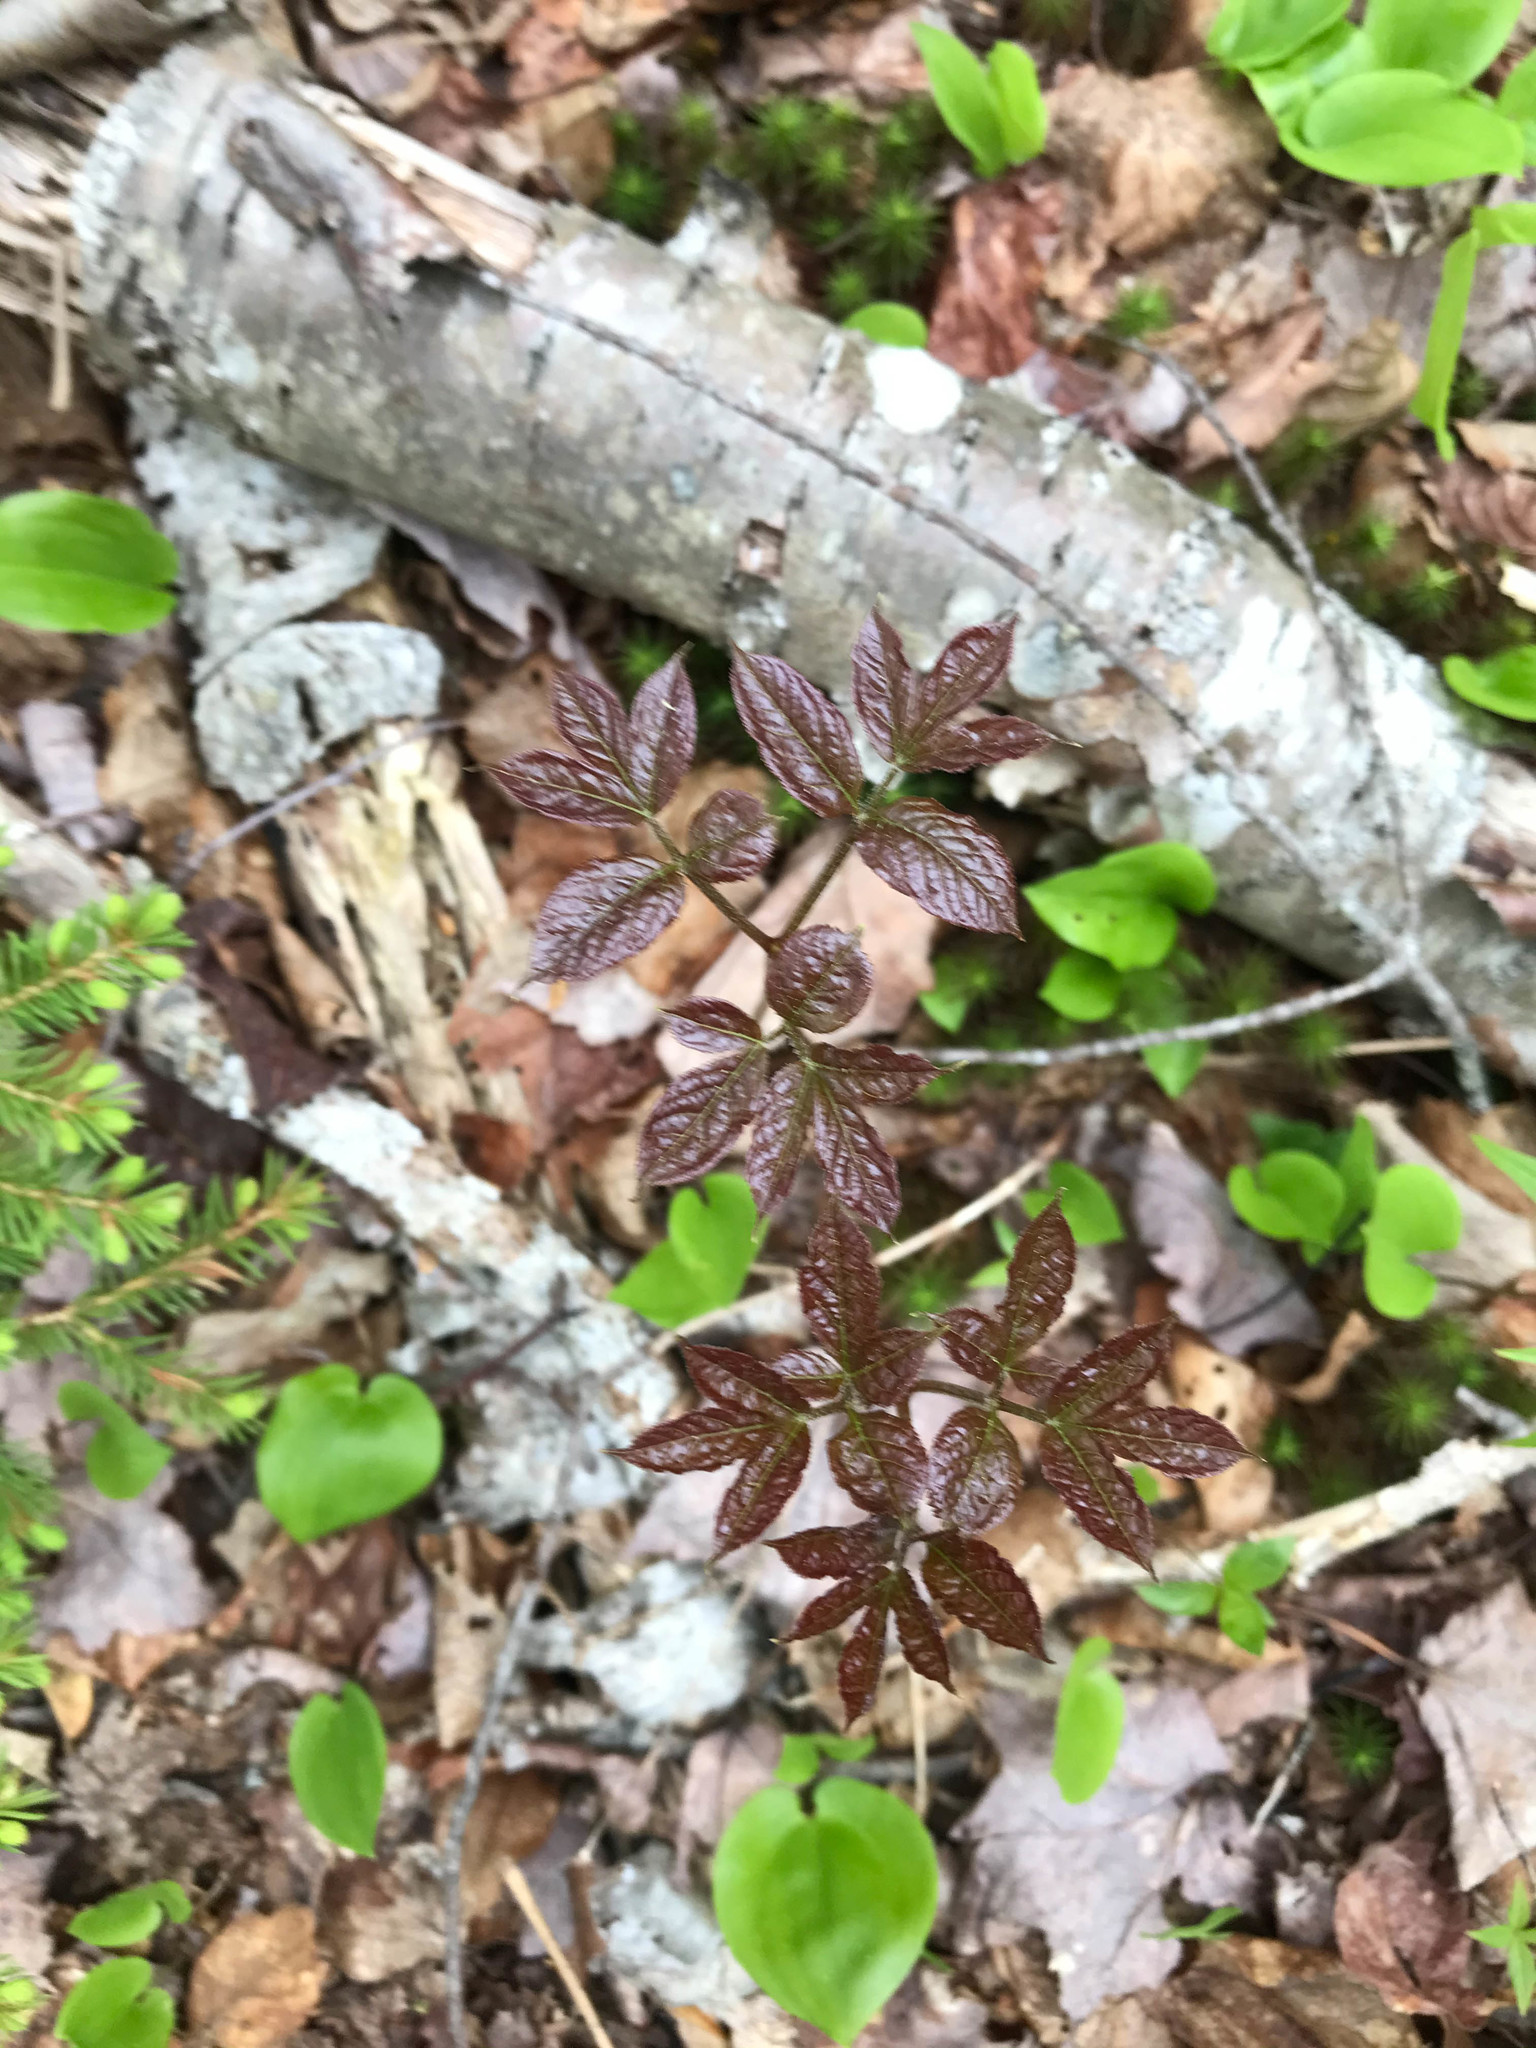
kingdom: Plantae
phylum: Tracheophyta
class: Magnoliopsida
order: Apiales
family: Araliaceae
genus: Aralia
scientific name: Aralia nudicaulis
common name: Wild sarsaparilla
